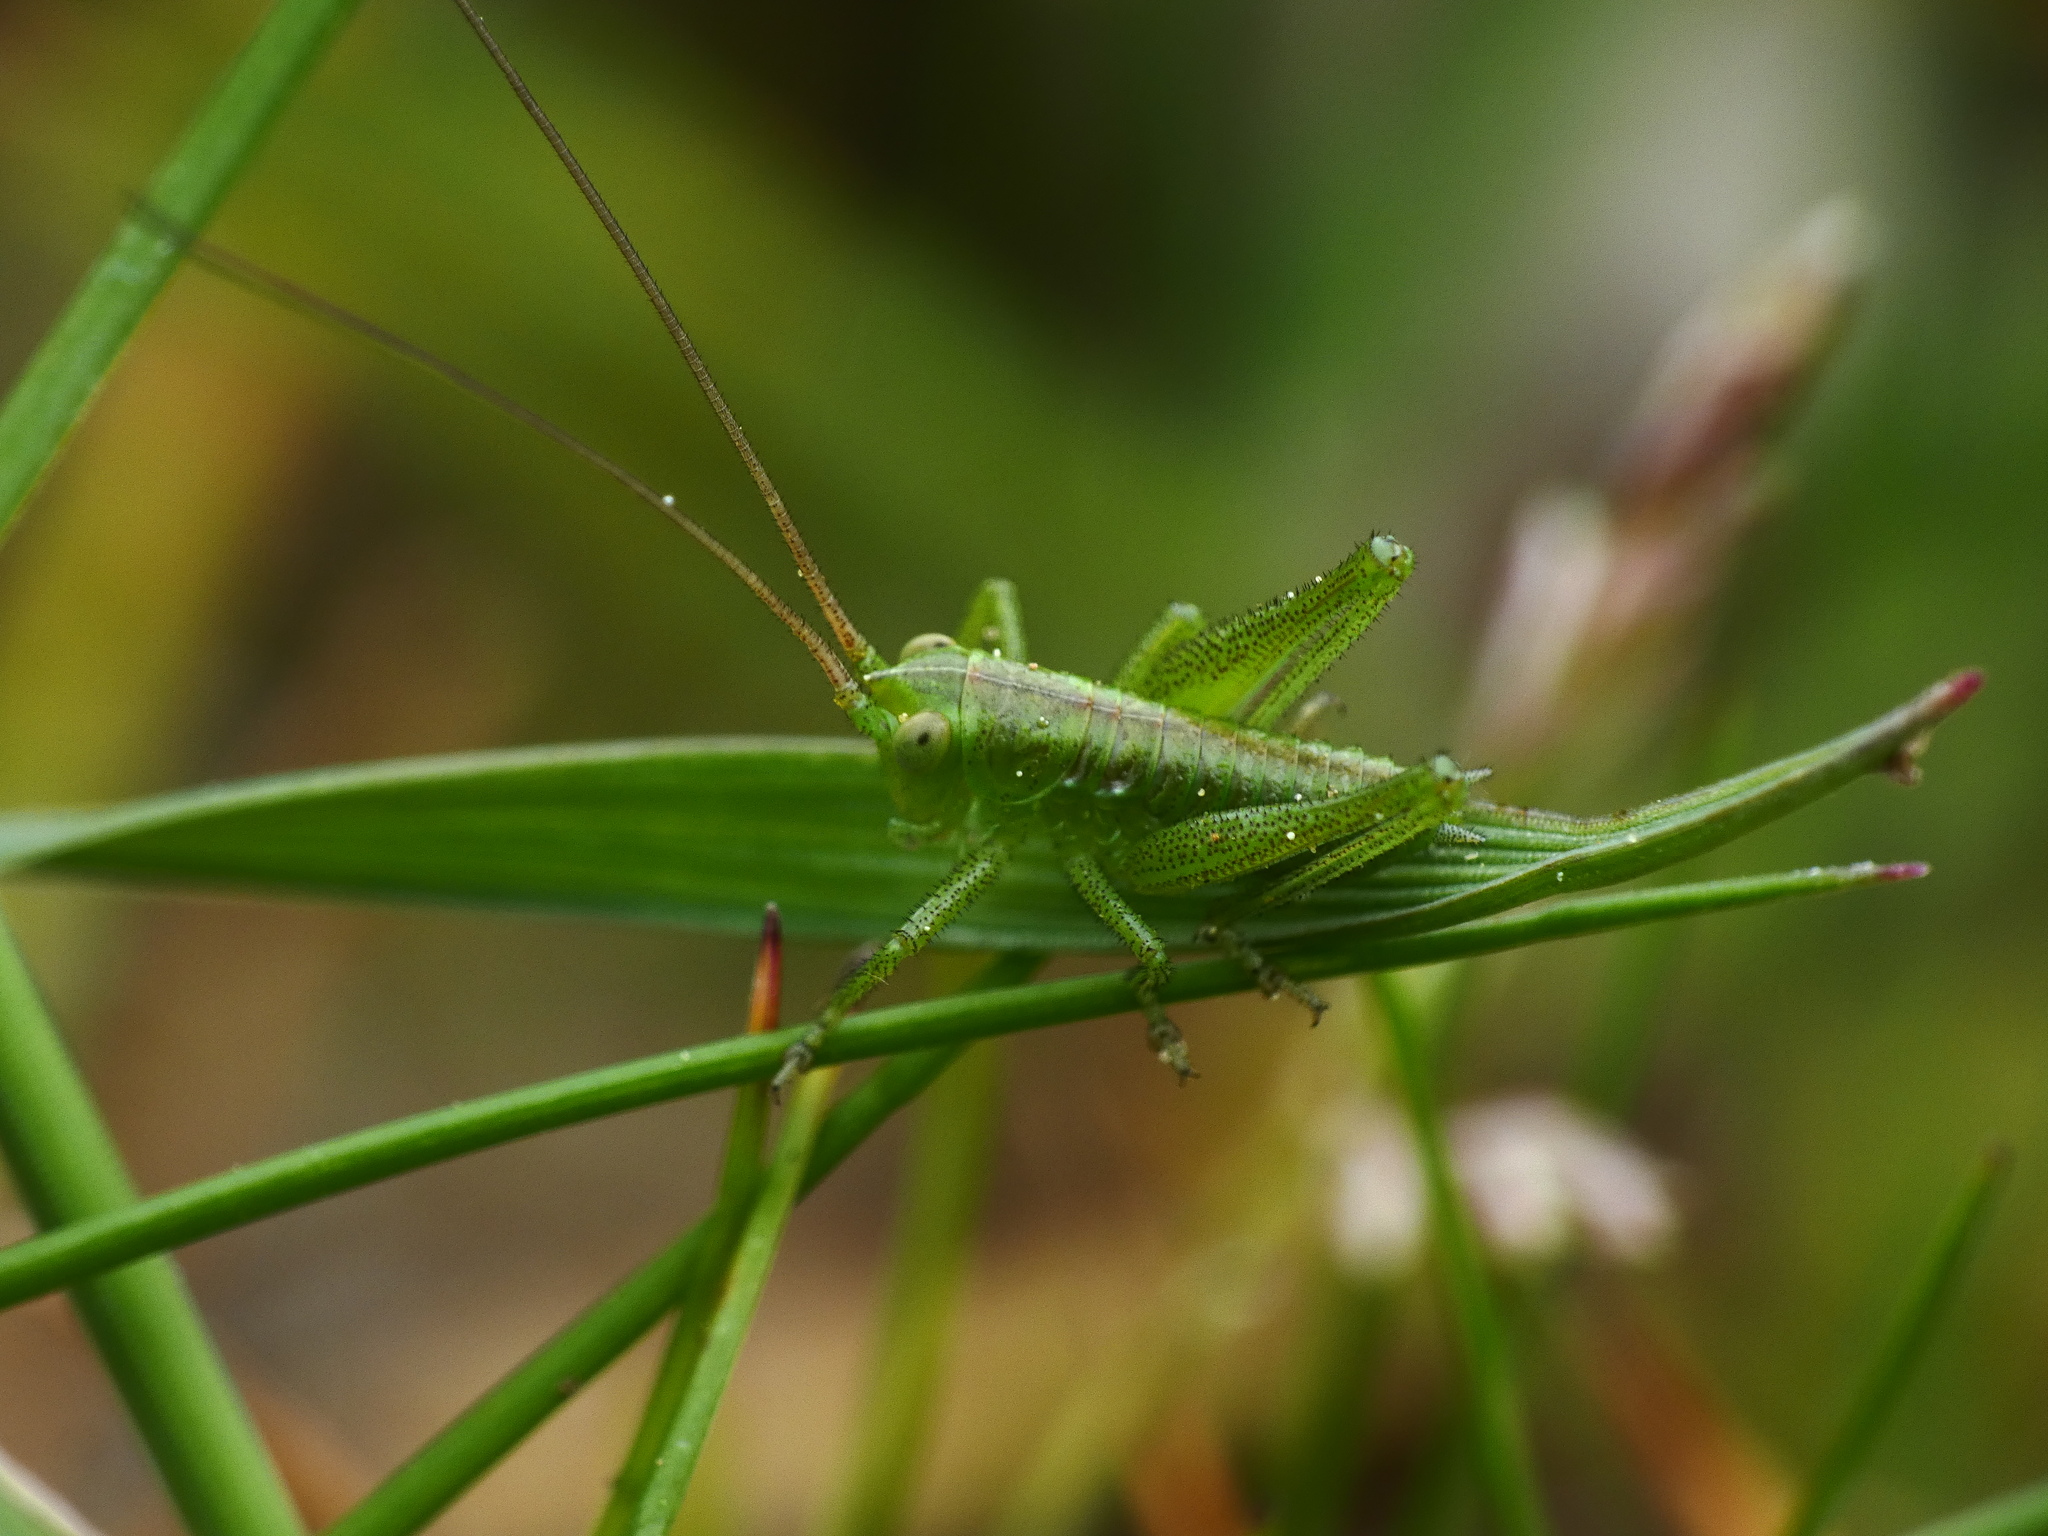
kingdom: Animalia
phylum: Arthropoda
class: Insecta
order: Orthoptera
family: Tettigoniidae
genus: Tettigonia
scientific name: Tettigonia viridissima
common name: Great green bush-cricket
